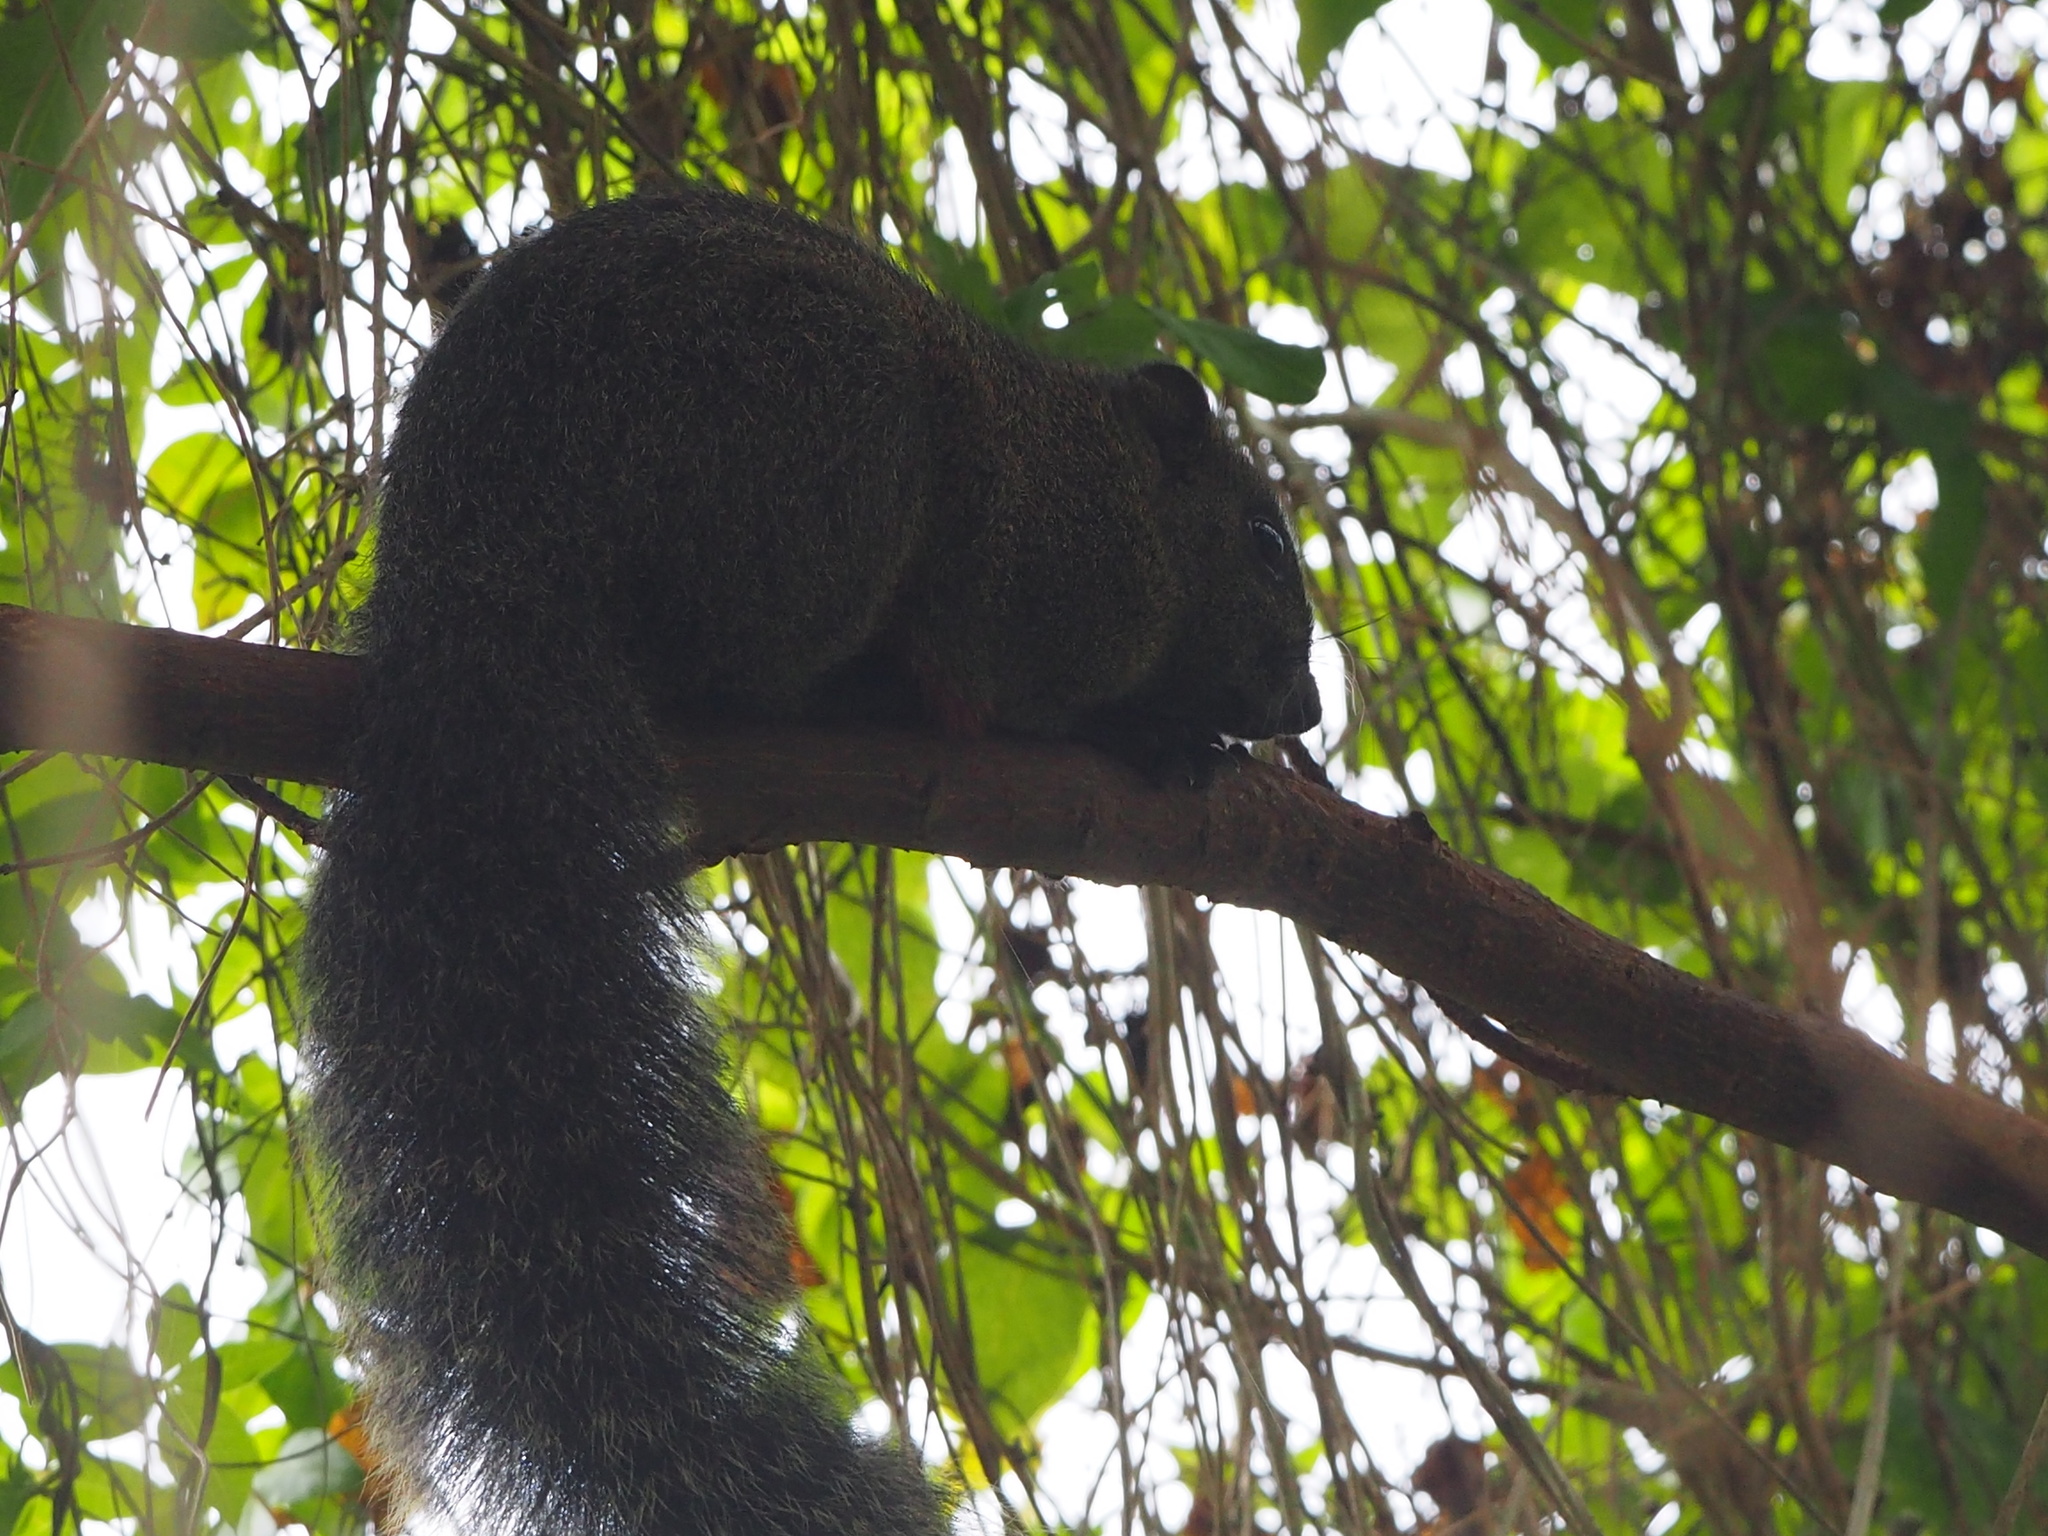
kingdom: Animalia
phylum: Chordata
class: Mammalia
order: Rodentia
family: Sciuridae
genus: Callosciurus
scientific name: Callosciurus erythraeus
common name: Pallas's squirrel
